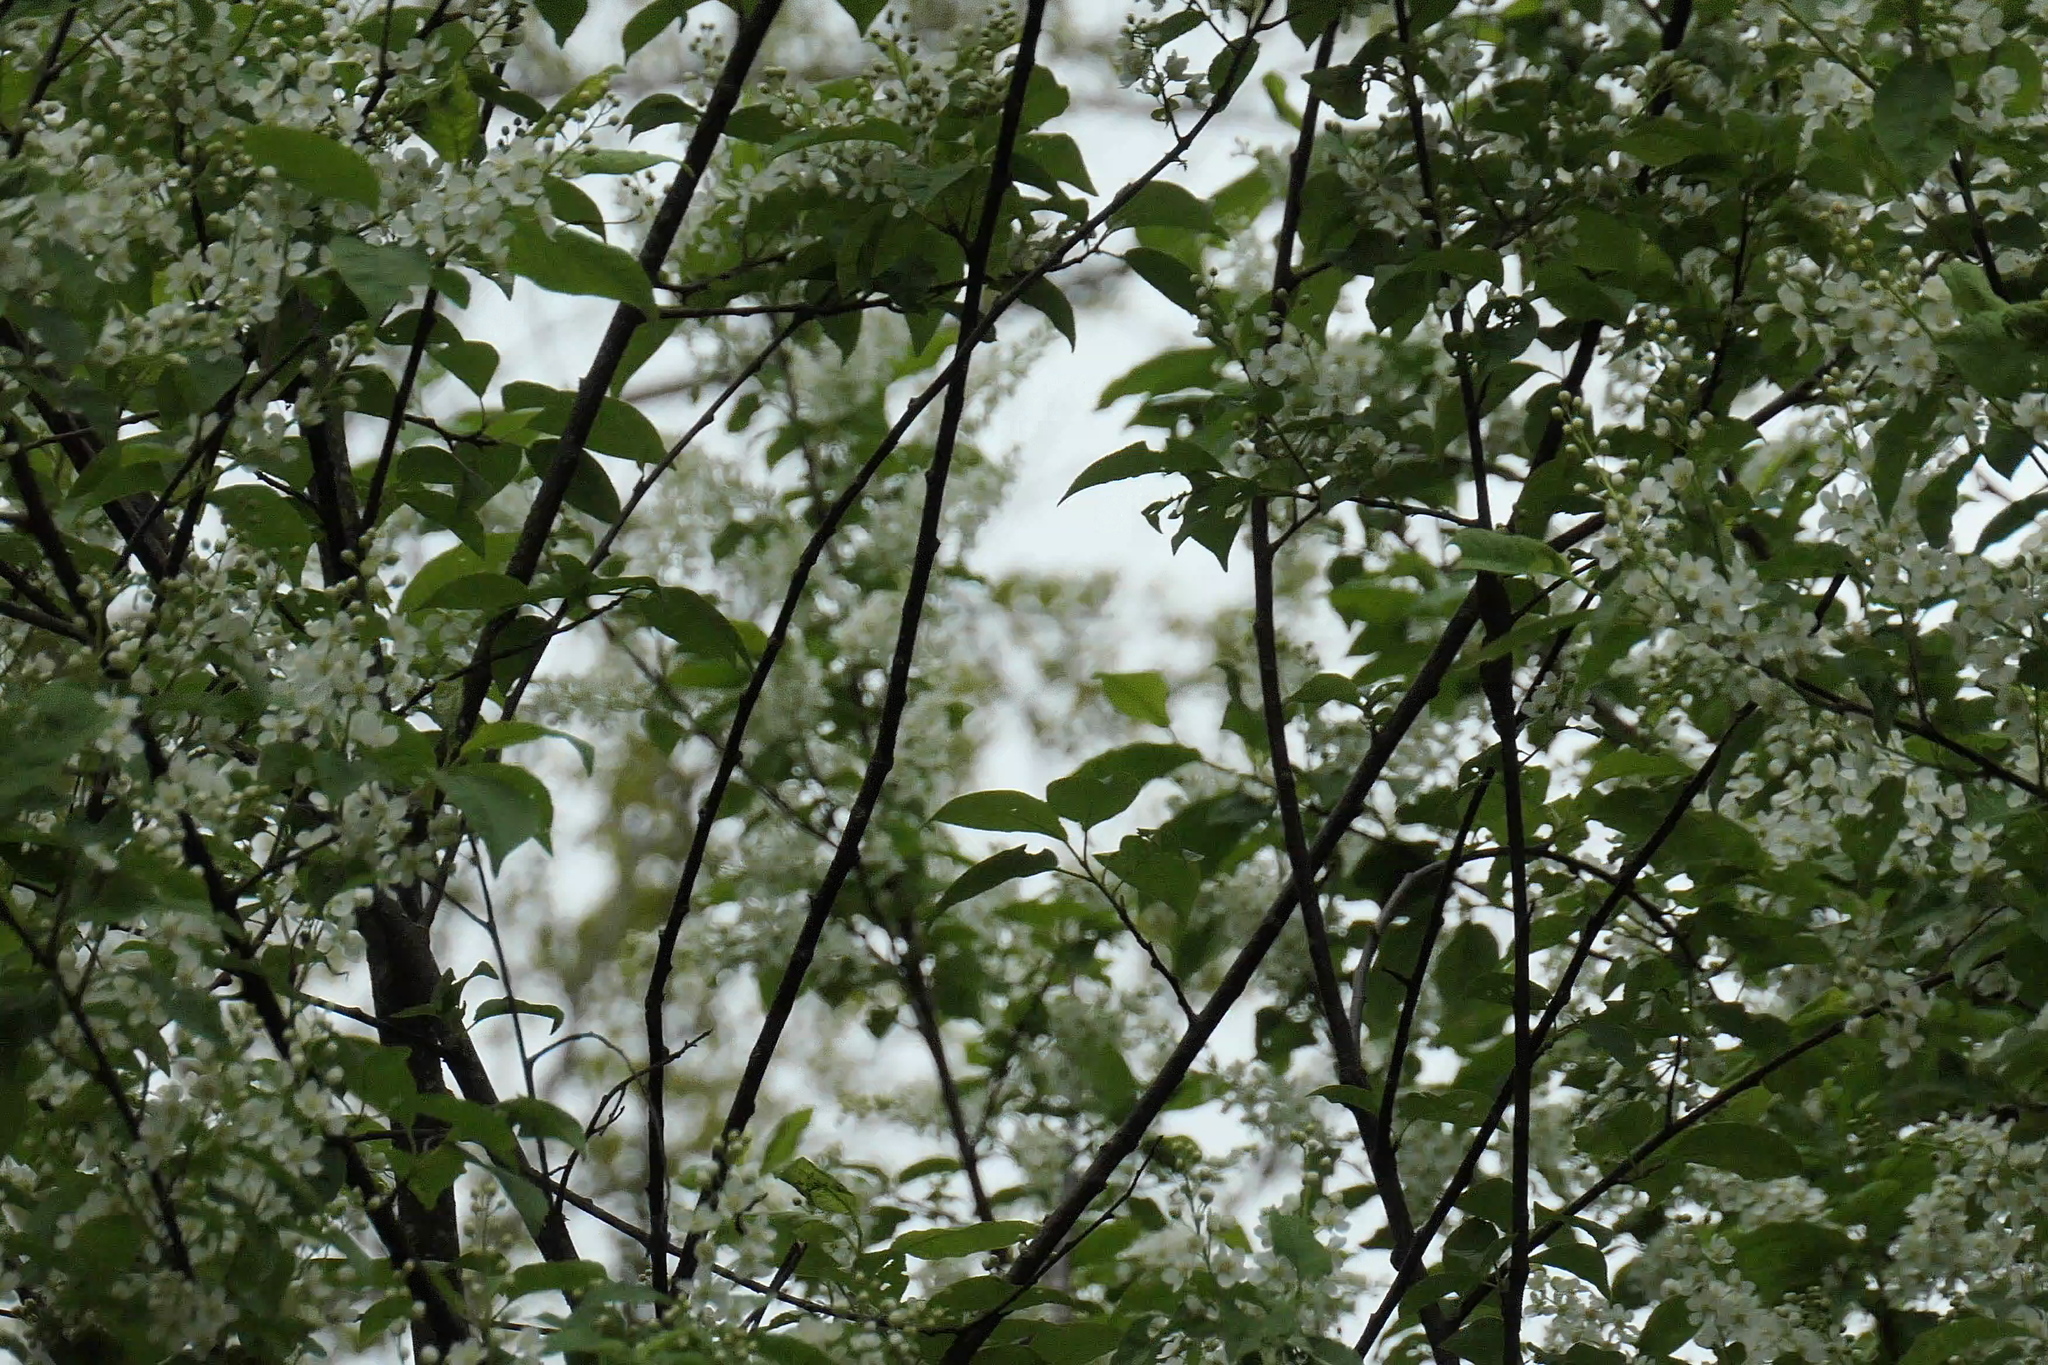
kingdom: Plantae
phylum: Tracheophyta
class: Magnoliopsida
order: Rosales
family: Rosaceae
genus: Prunus
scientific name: Prunus padus
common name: Bird cherry
